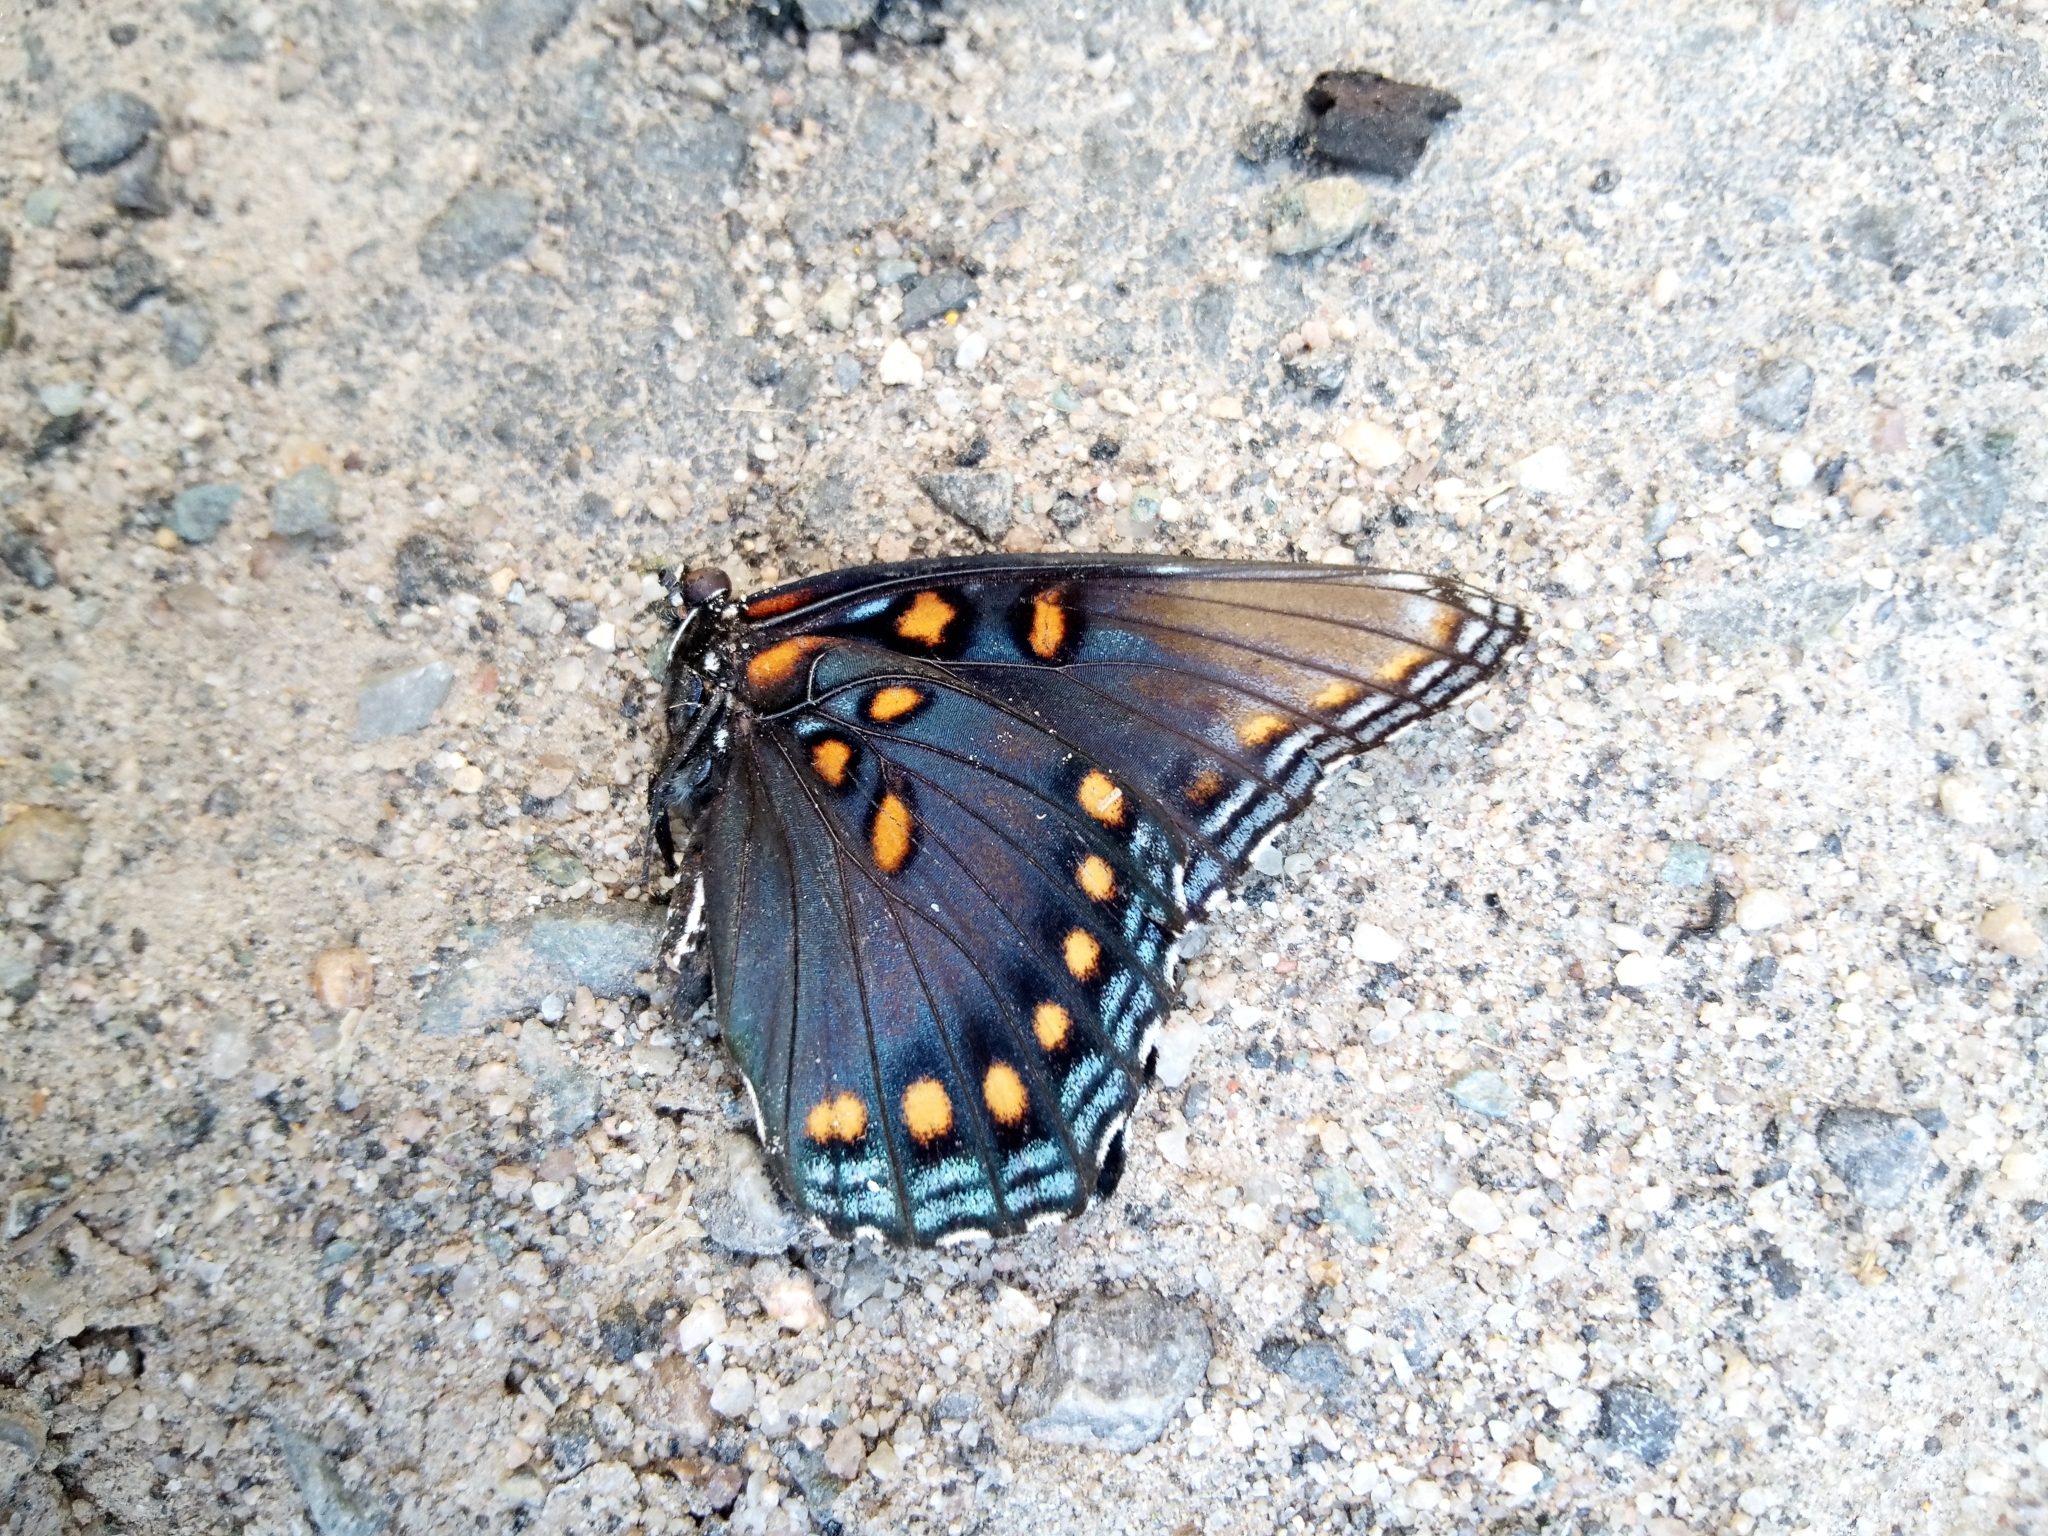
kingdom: Animalia
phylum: Arthropoda
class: Insecta
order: Lepidoptera
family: Nymphalidae
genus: Limenitis
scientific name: Limenitis astyanax
